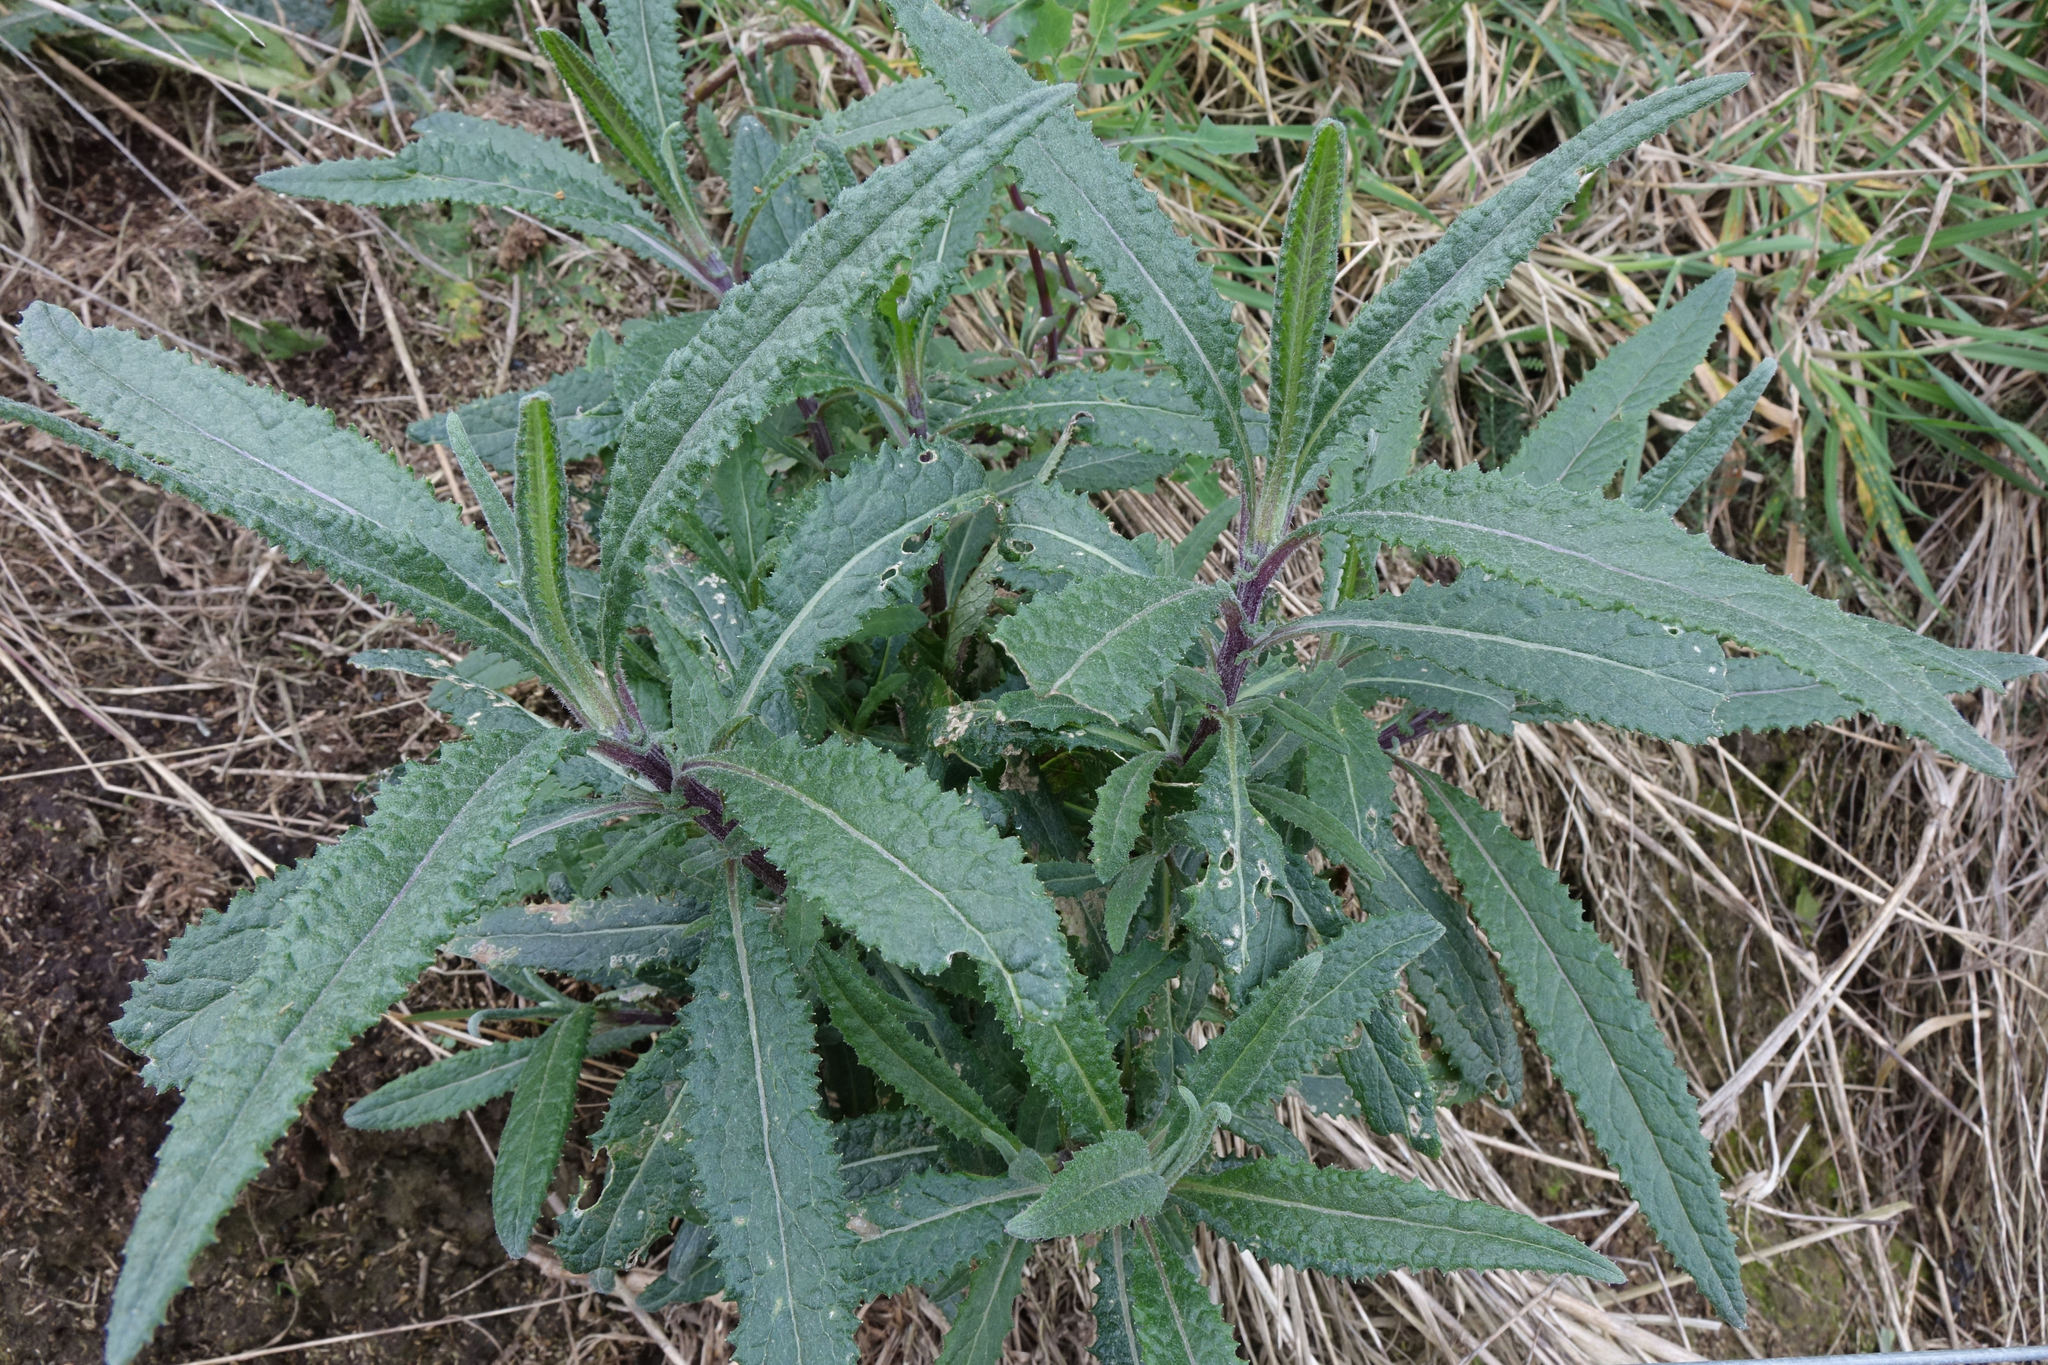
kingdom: Plantae
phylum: Tracheophyta
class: Magnoliopsida
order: Asterales
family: Asteraceae
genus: Senecio
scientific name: Senecio minimus
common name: Toothed fireweed
